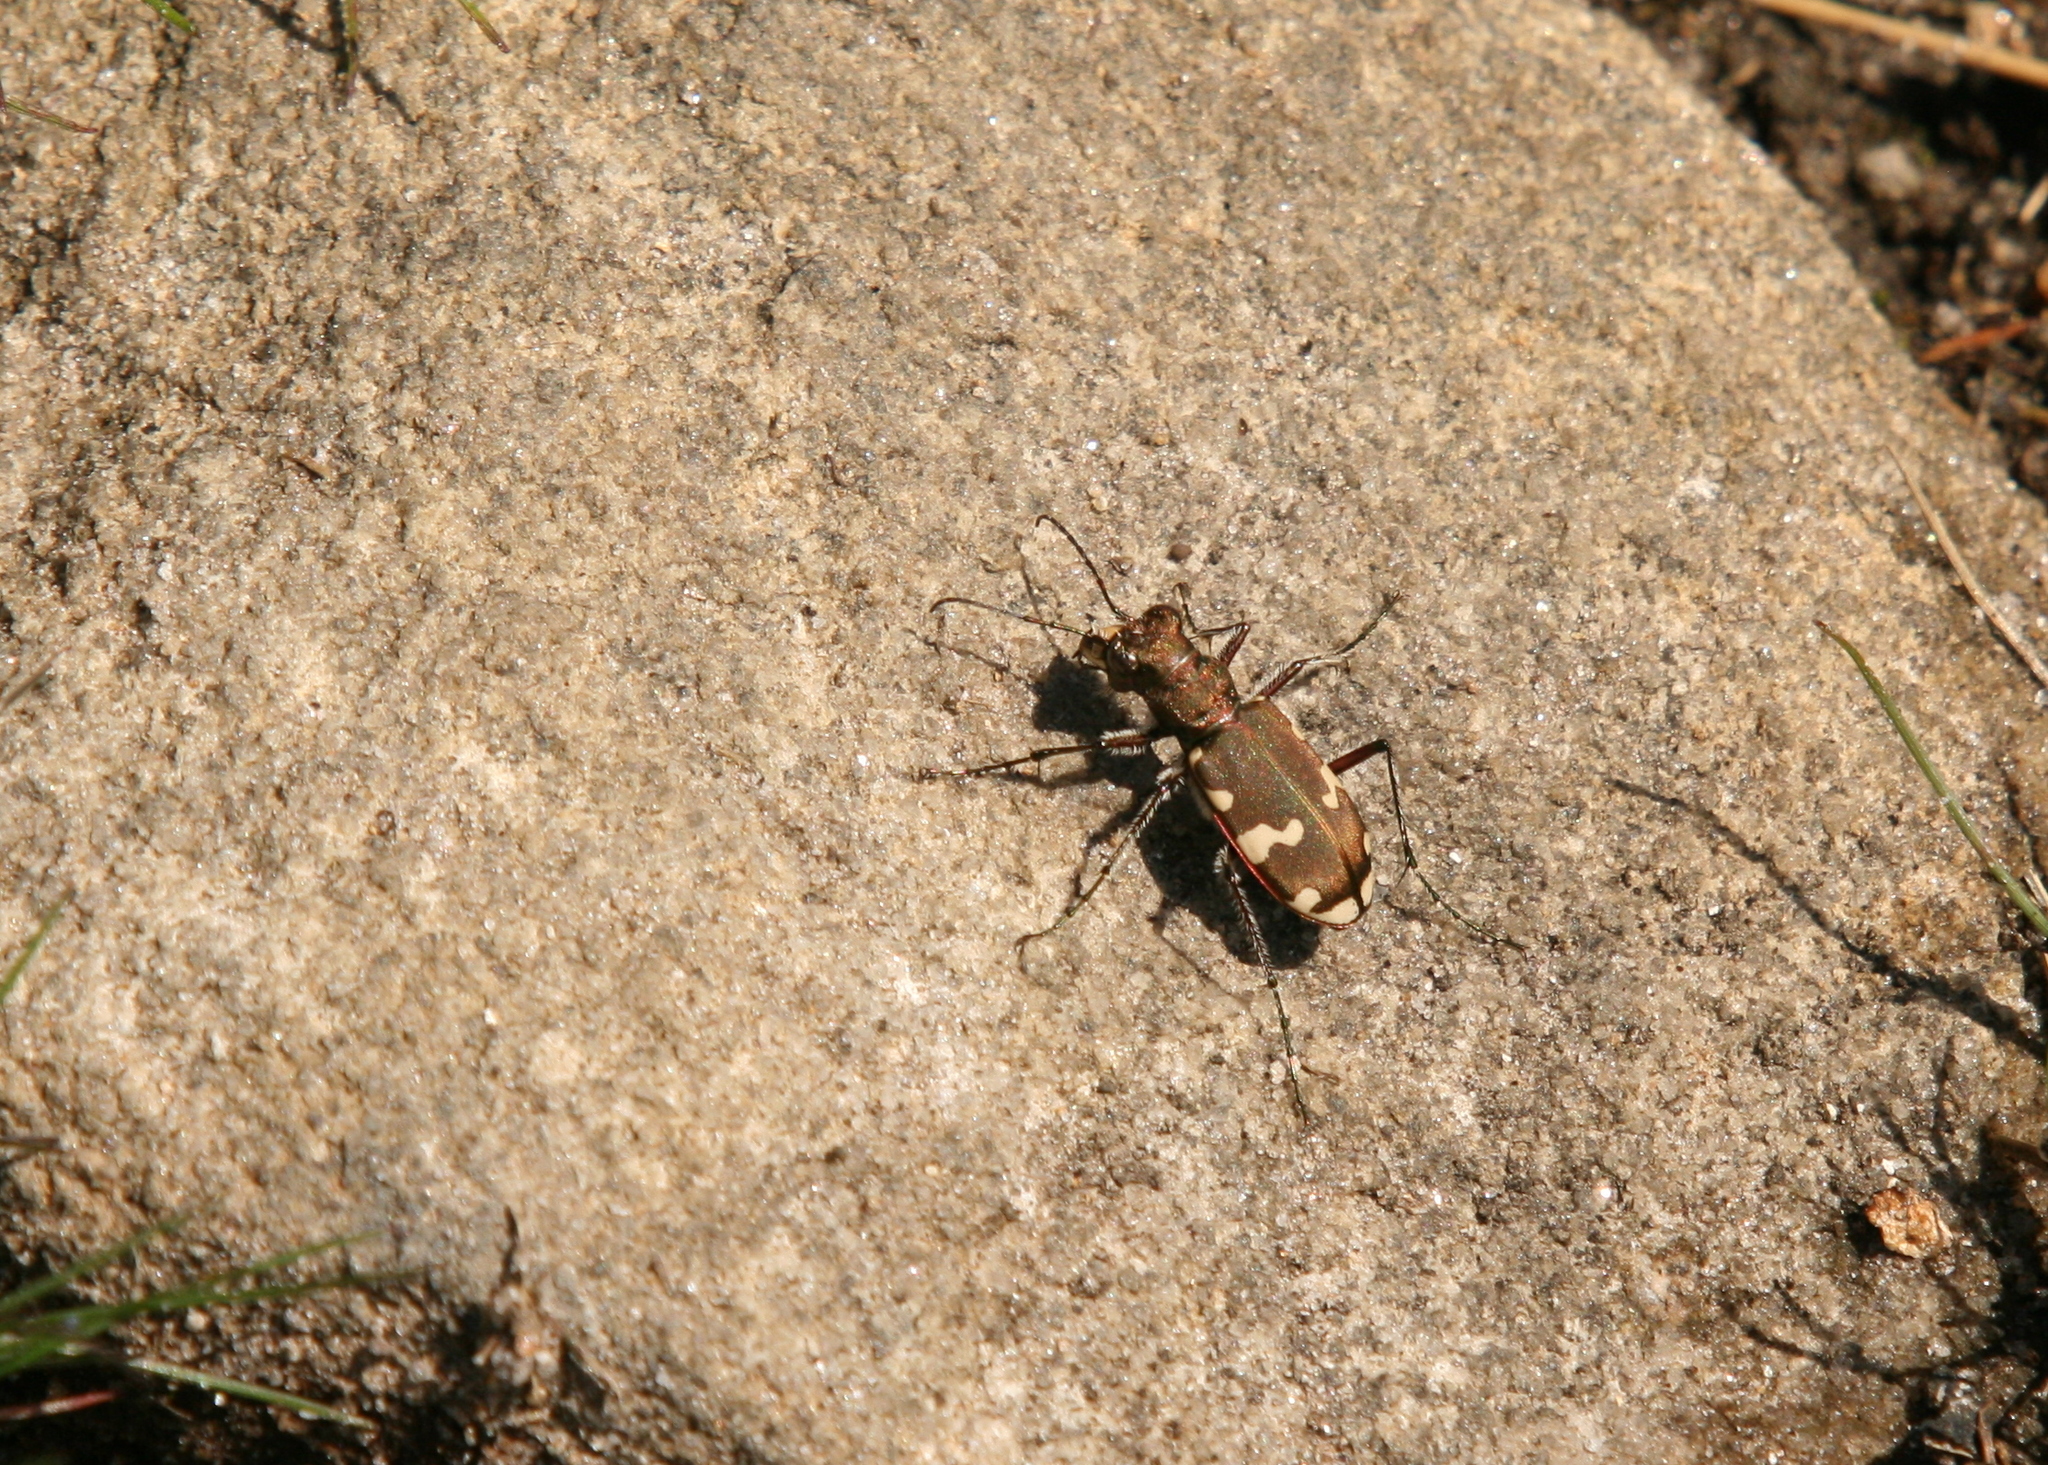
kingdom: Animalia
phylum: Arthropoda
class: Insecta
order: Coleoptera
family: Carabidae
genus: Cicindela
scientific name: Cicindela sylvicola
